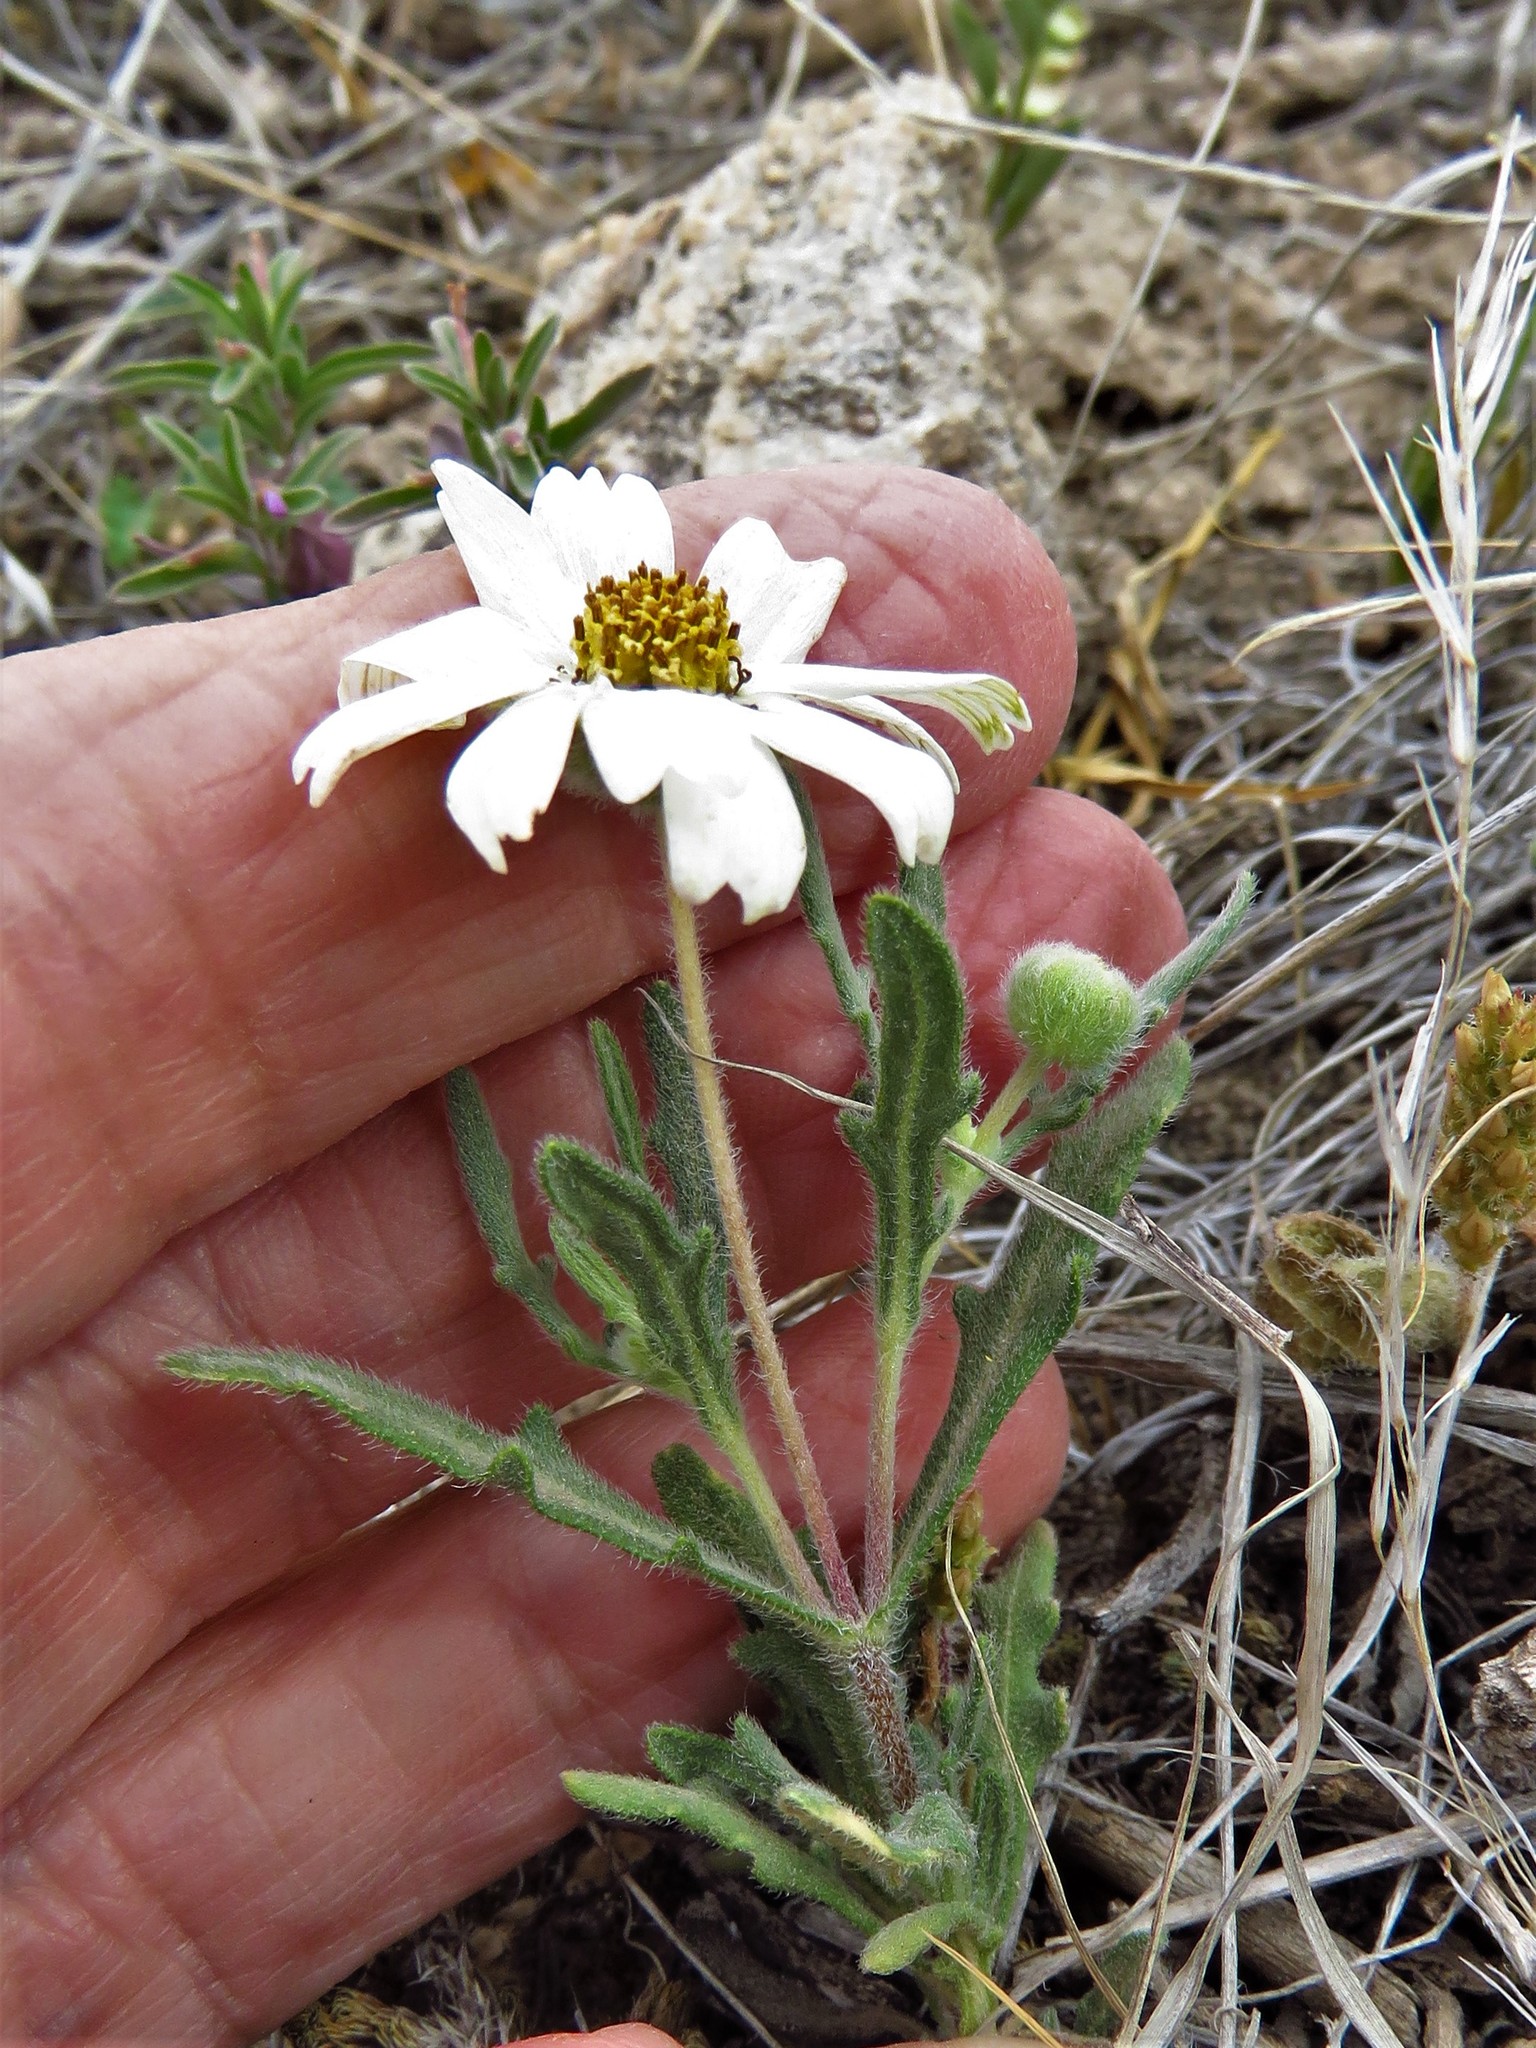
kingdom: Plantae
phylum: Tracheophyta
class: Magnoliopsida
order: Asterales
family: Asteraceae
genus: Melampodium
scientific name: Melampodium leucanthum
